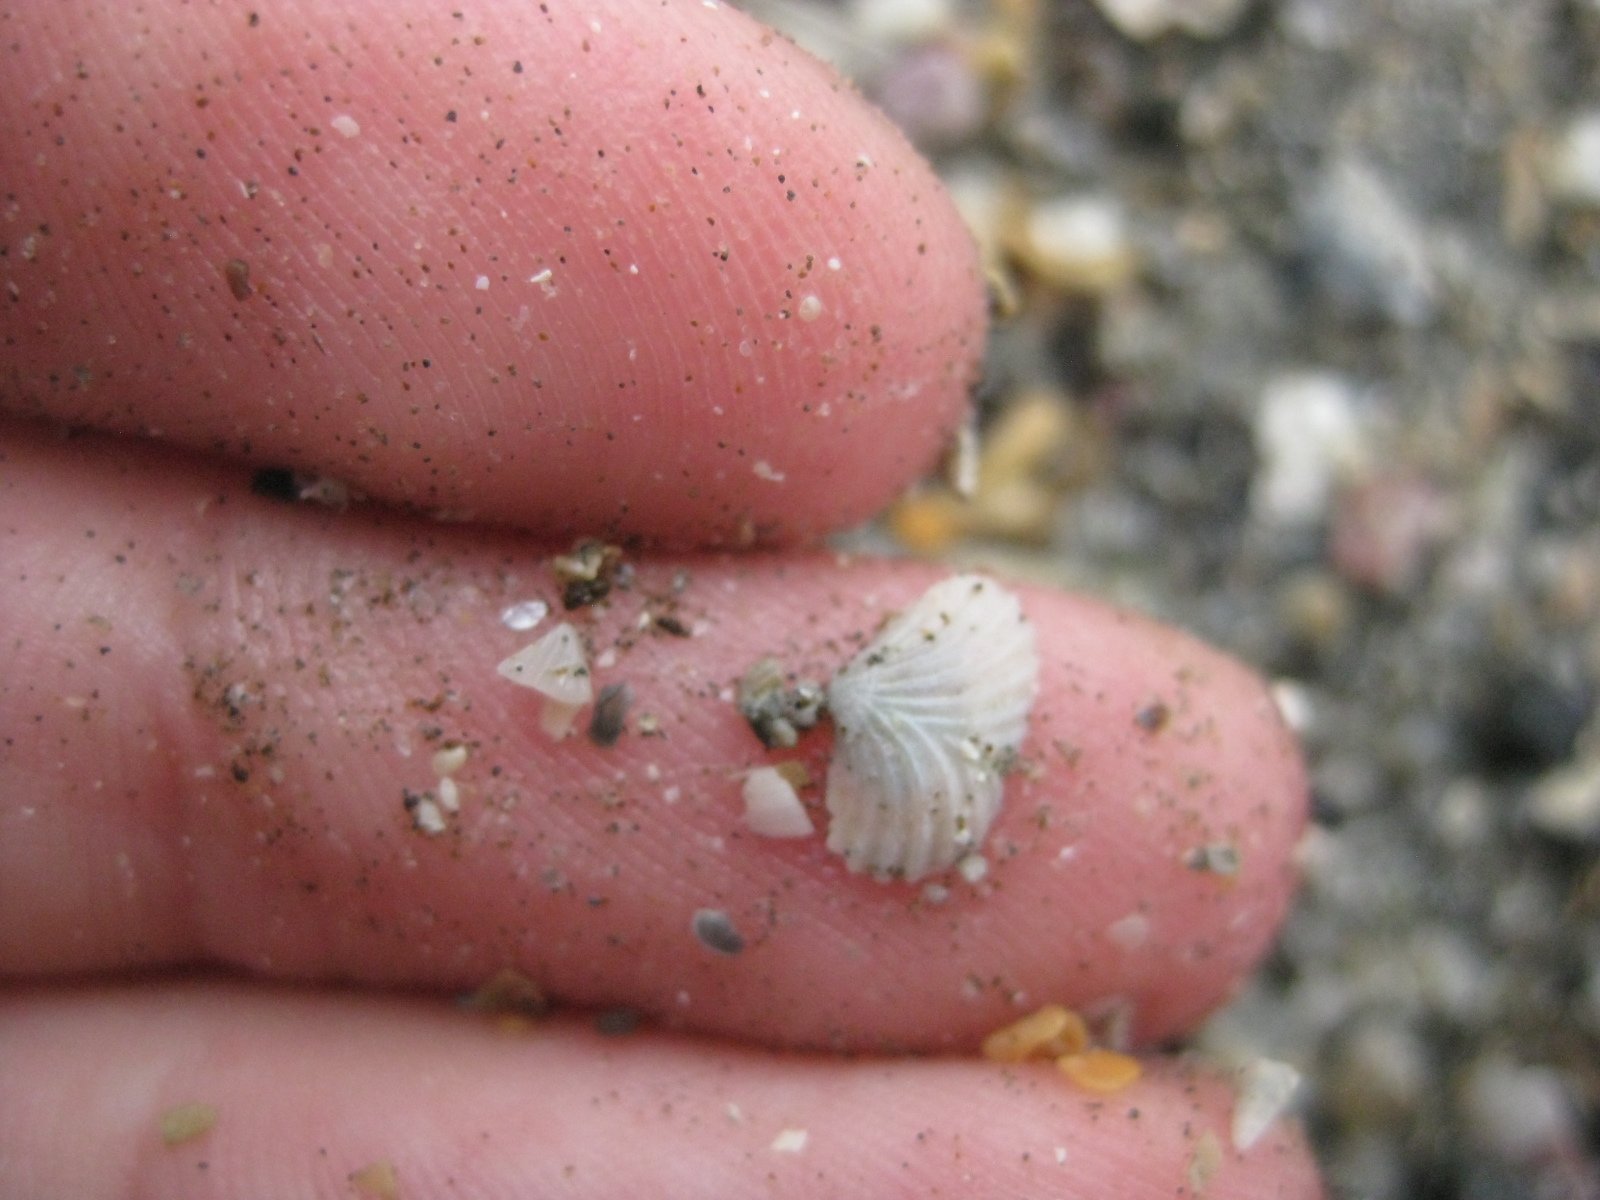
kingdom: Animalia
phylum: Mollusca
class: Bivalvia
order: Galeommatida
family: Lasaeidae
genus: Myllita
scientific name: Myllita stowei
